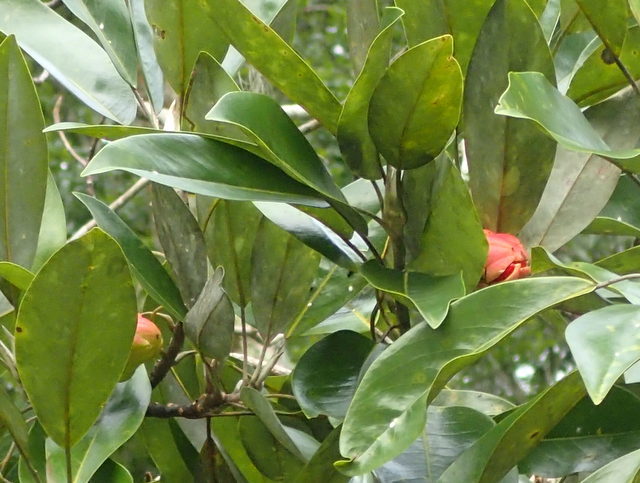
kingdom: Plantae
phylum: Tracheophyta
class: Magnoliopsida
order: Magnoliales
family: Magnoliaceae
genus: Magnolia
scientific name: Magnolia virginiana
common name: Swamp bay
